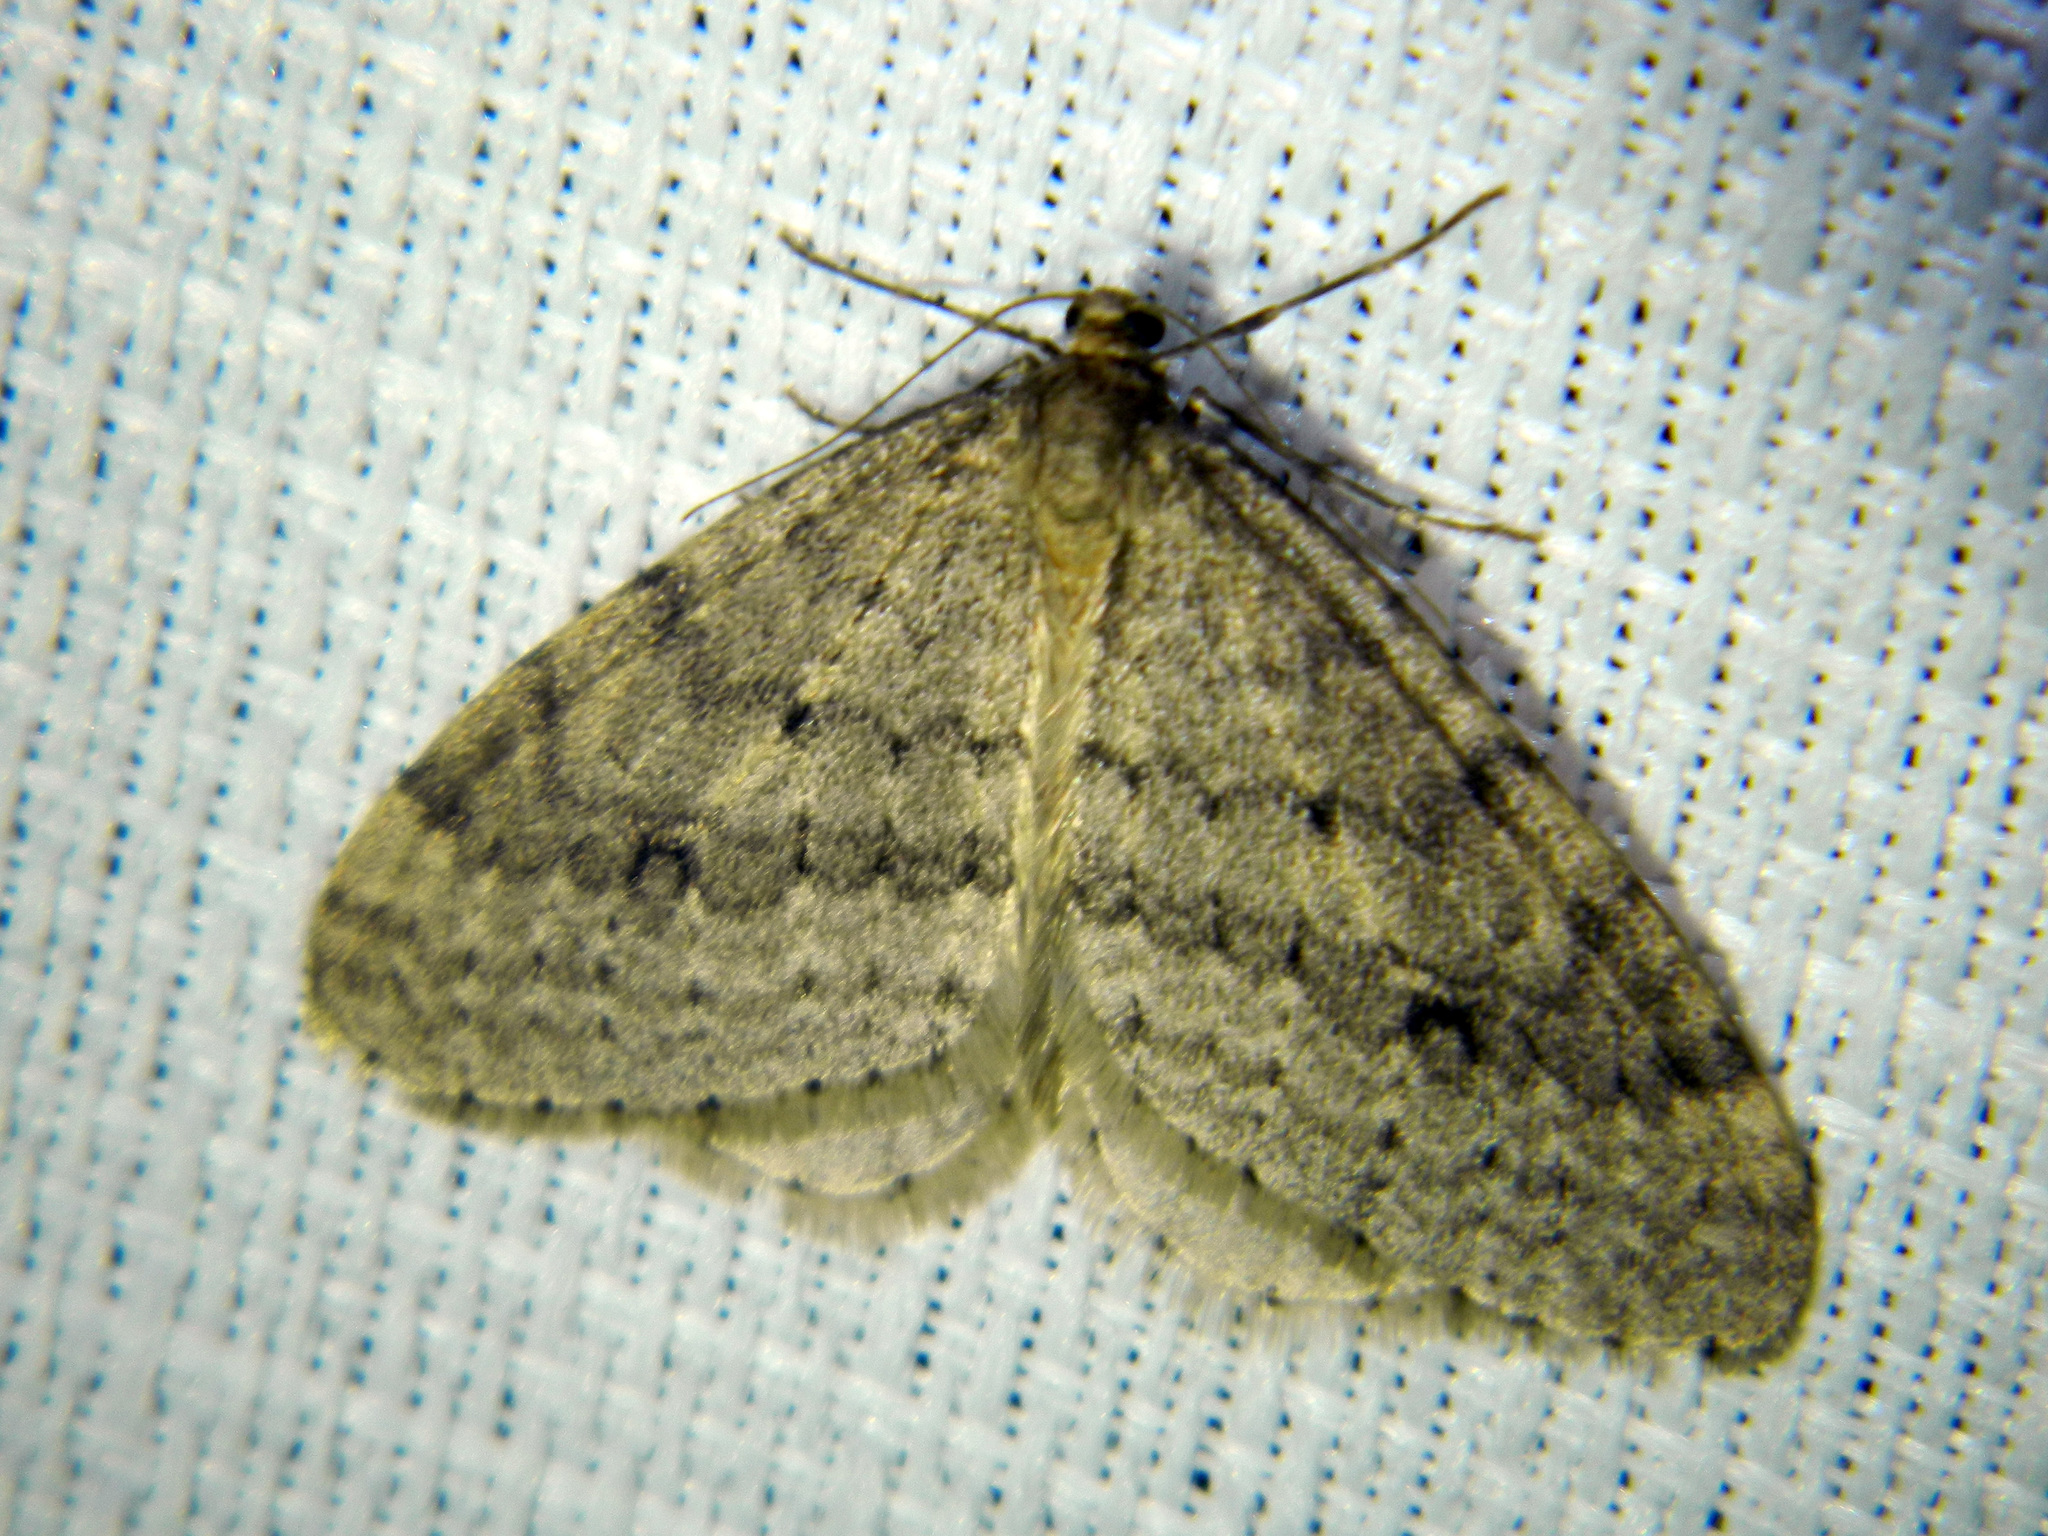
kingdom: Animalia
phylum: Arthropoda
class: Insecta
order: Lepidoptera
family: Geometridae
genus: Operophtera
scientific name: Operophtera bruceata
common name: Bruce spanworm
